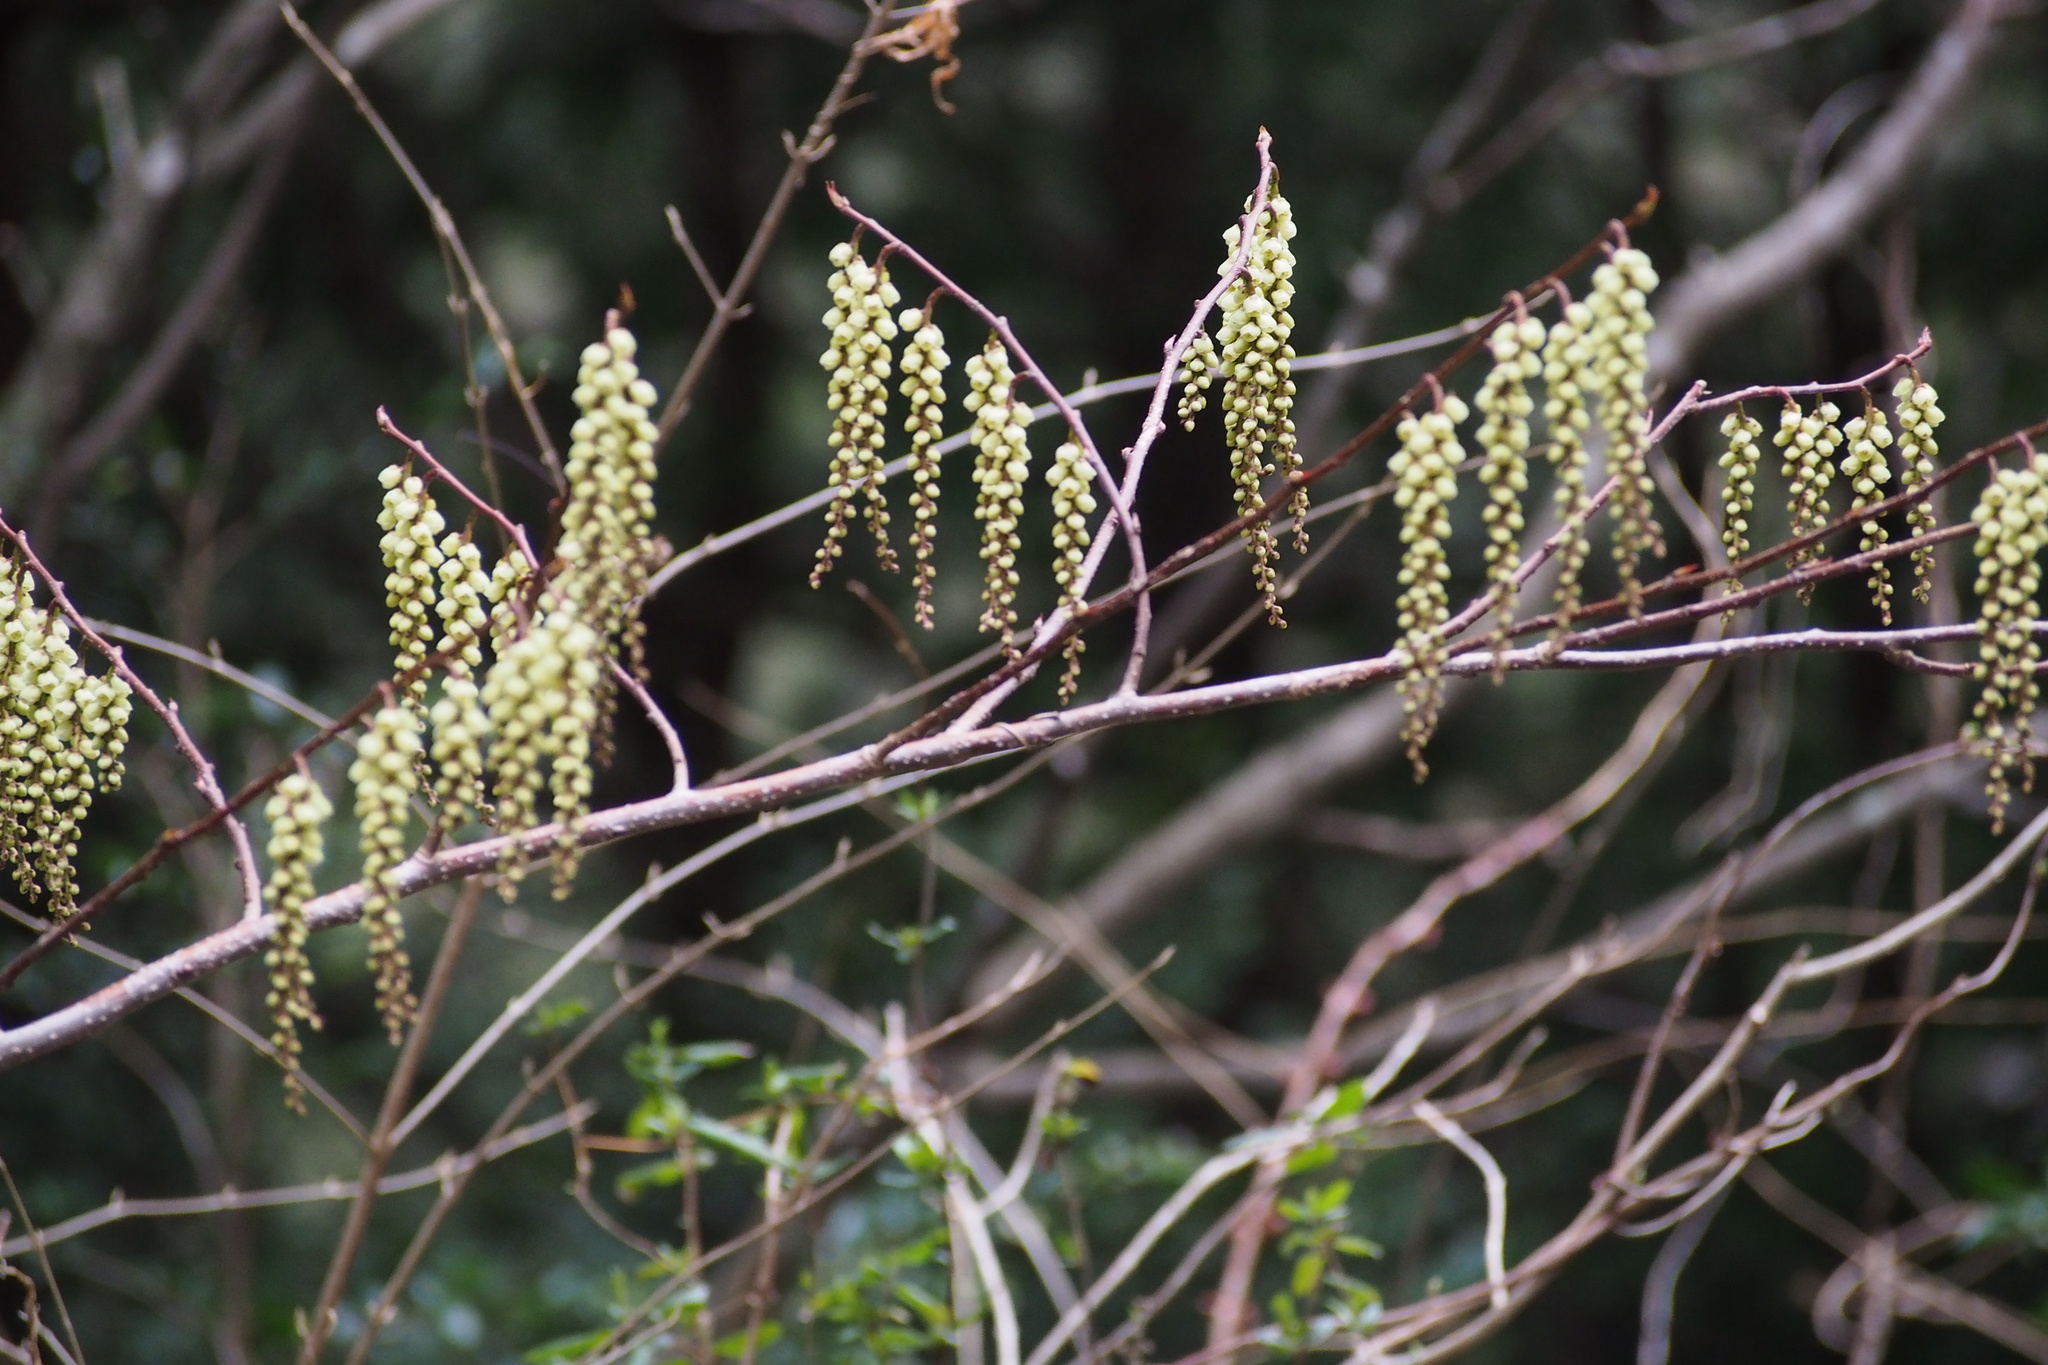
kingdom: Plantae
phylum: Tracheophyta
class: Magnoliopsida
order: Crossosomatales
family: Stachyuraceae
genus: Stachyurus
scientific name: Stachyurus praecox
